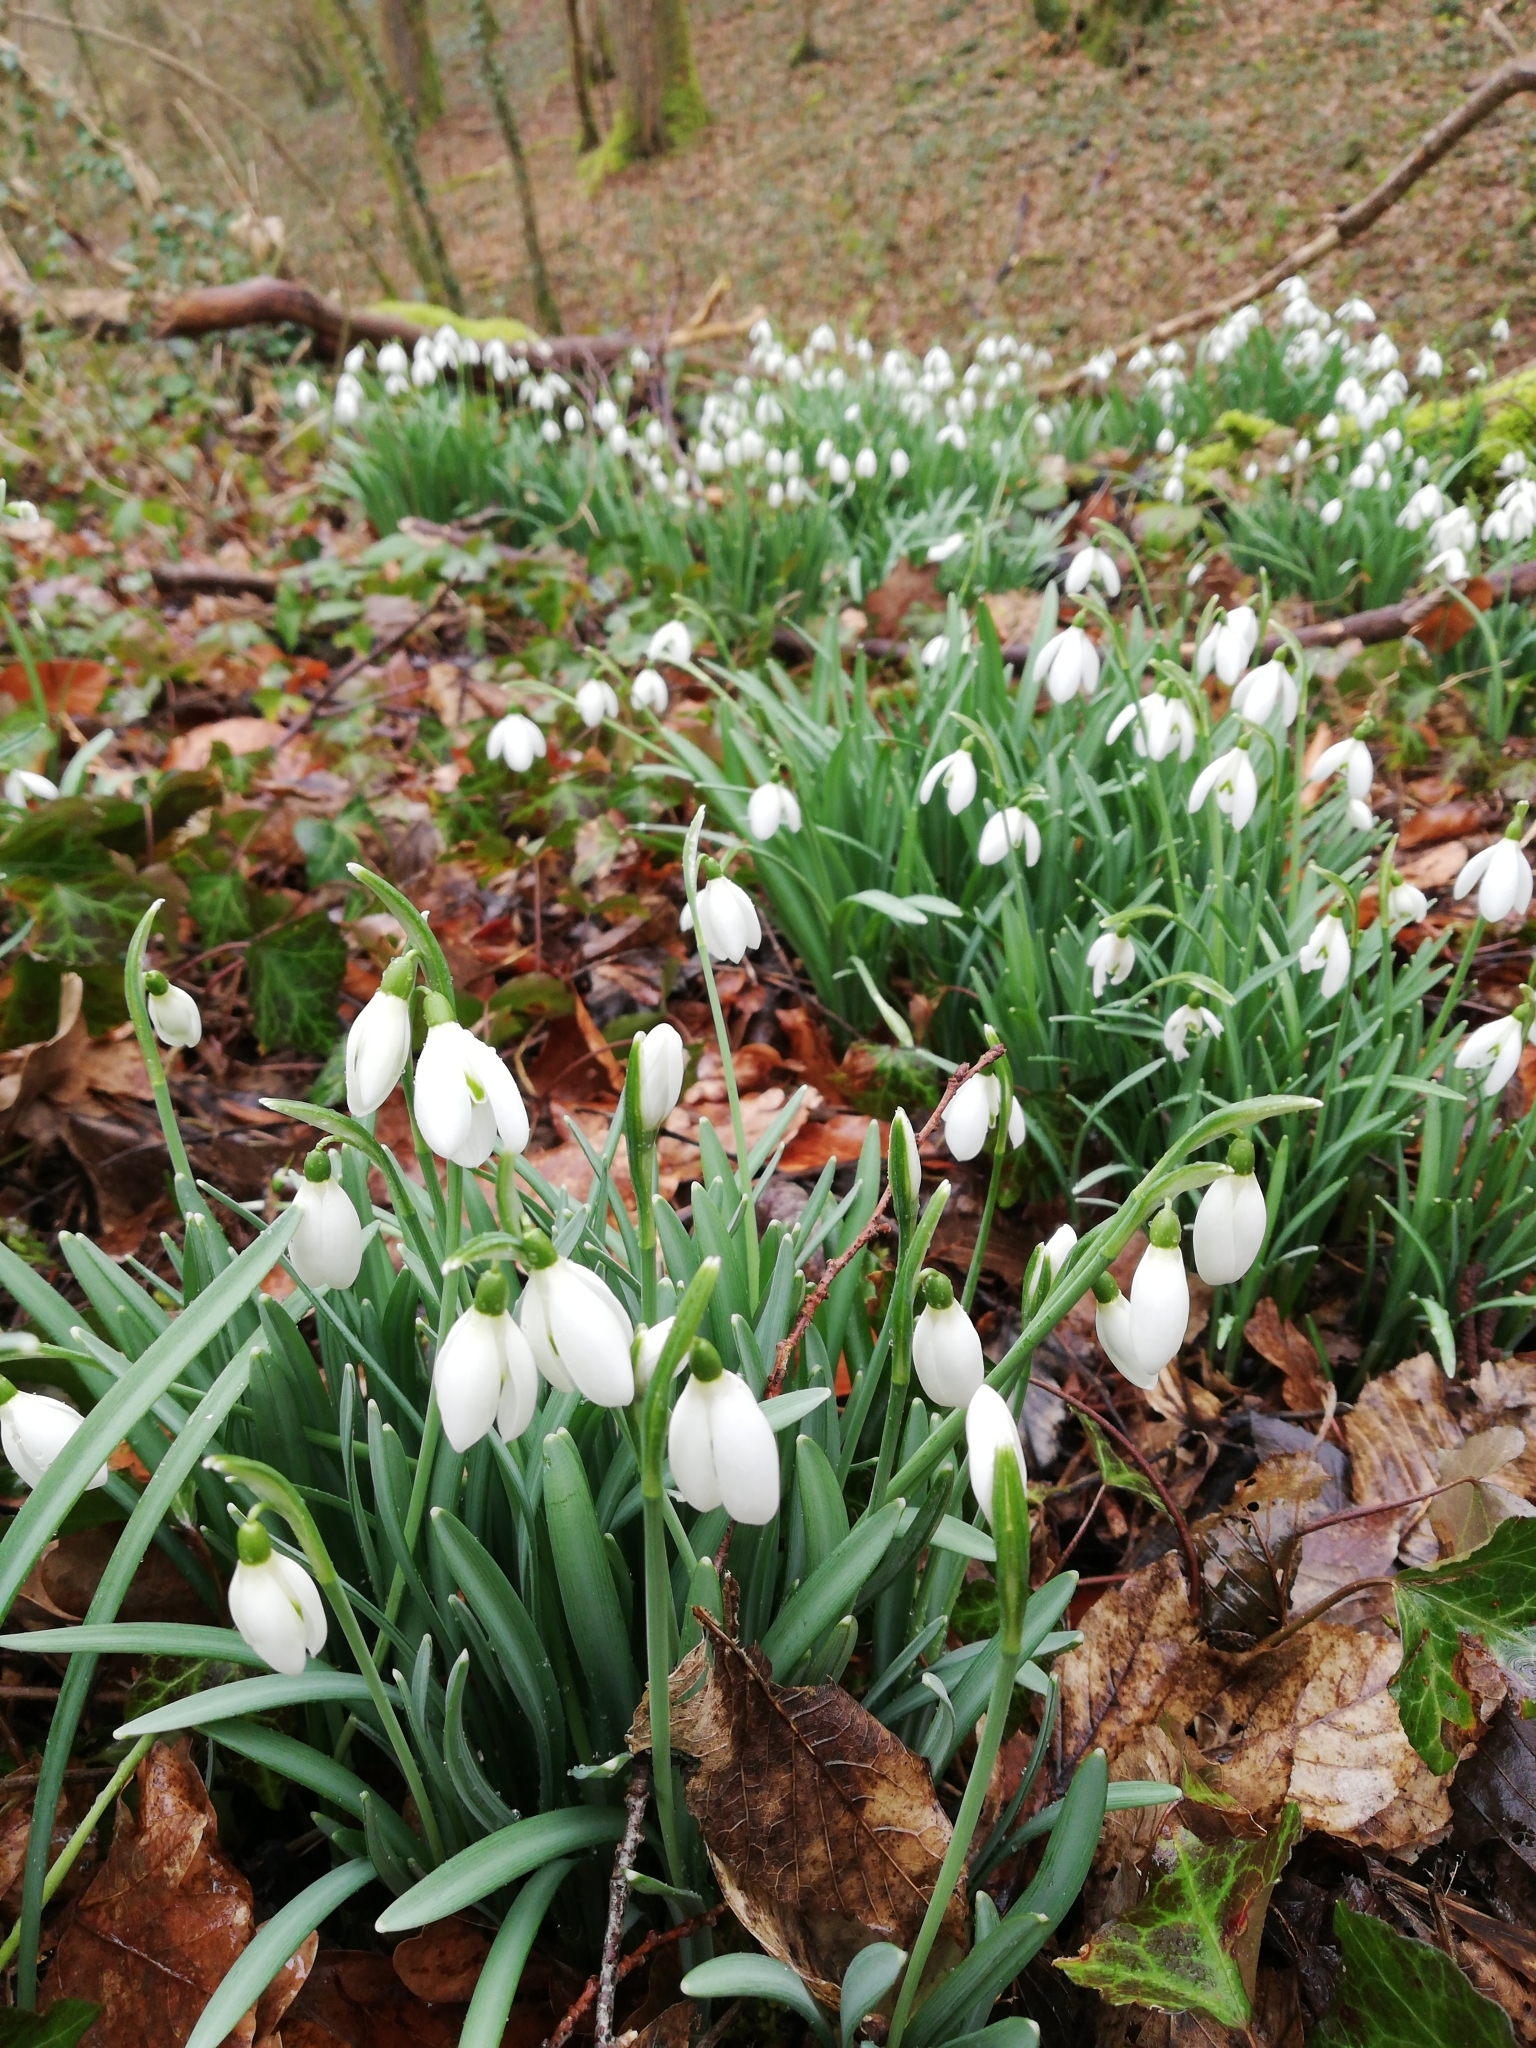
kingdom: Plantae
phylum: Tracheophyta
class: Liliopsida
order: Asparagales
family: Amaryllidaceae
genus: Galanthus
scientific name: Galanthus nivalis
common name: Snowdrop
